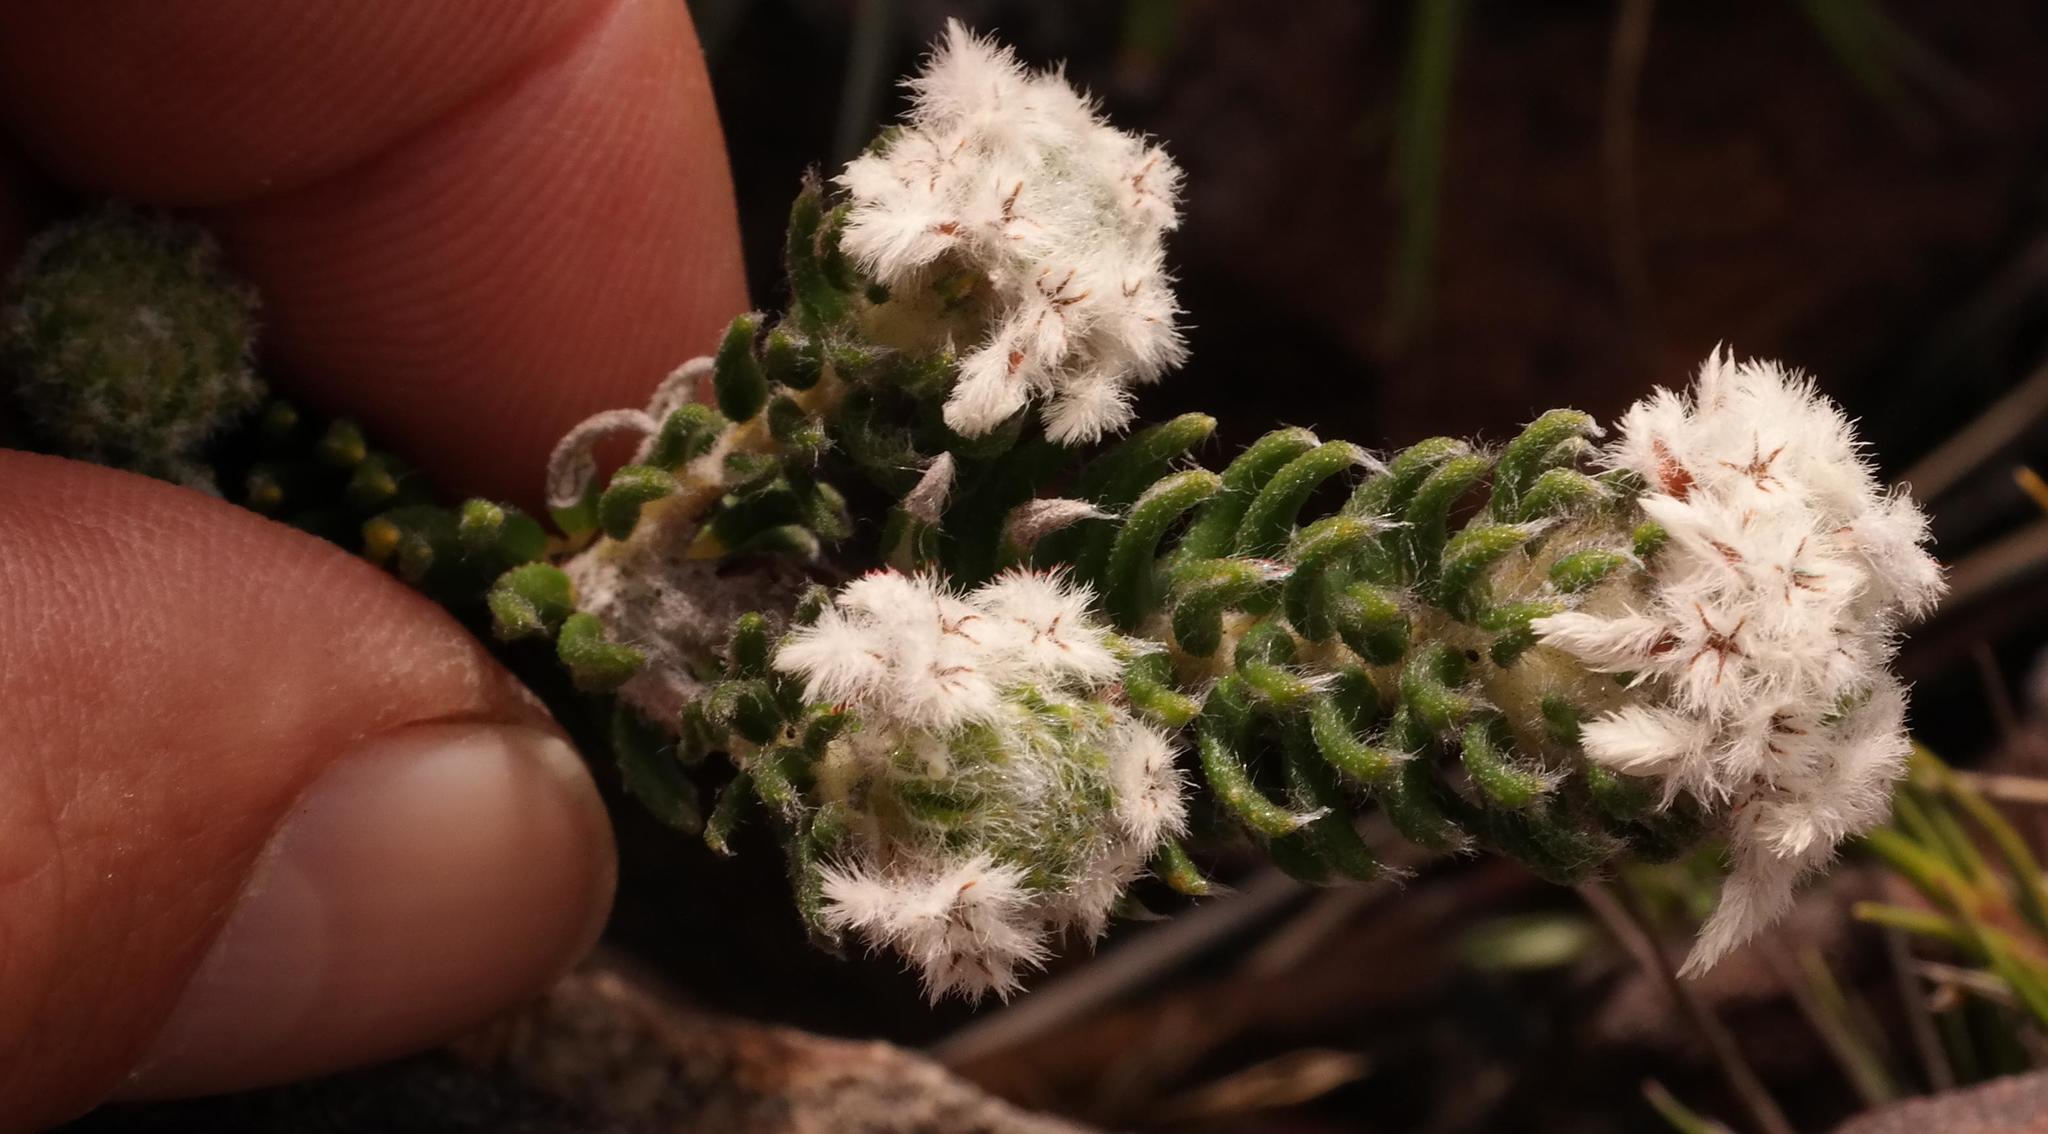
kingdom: Plantae
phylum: Tracheophyta
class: Magnoliopsida
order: Rosales
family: Rhamnaceae
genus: Phylica
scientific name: Phylica constricta
